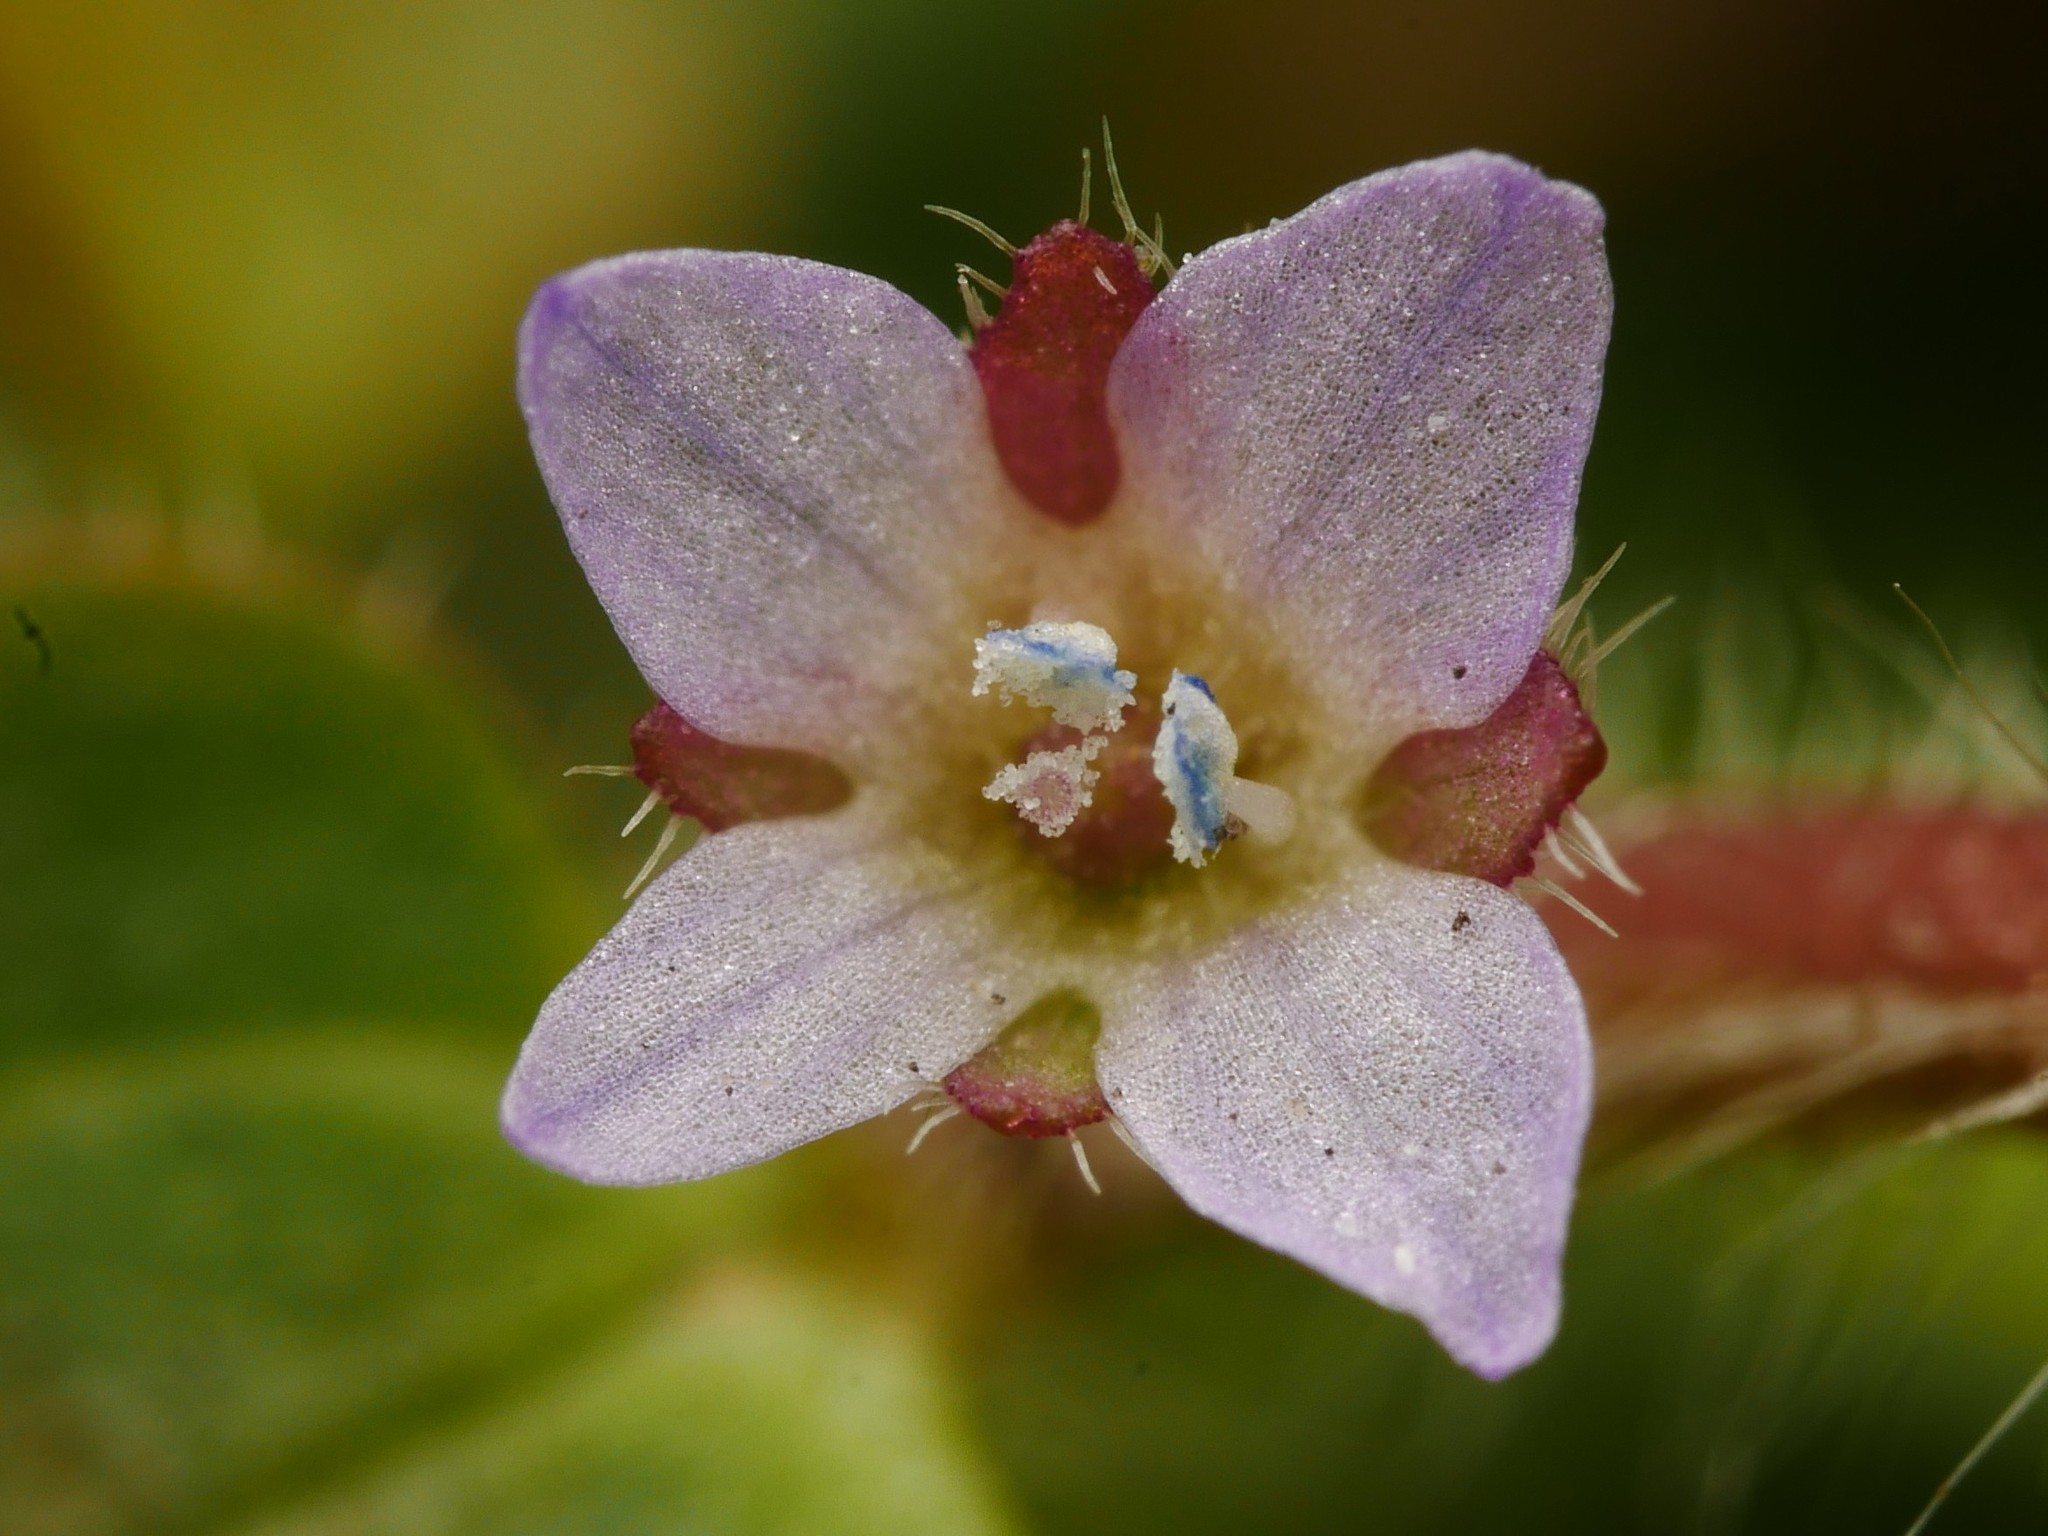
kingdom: Plantae
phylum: Tracheophyta
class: Magnoliopsida
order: Lamiales
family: Plantaginaceae
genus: Veronica
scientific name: Veronica sublobata
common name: False ivy-leaved speedwell
